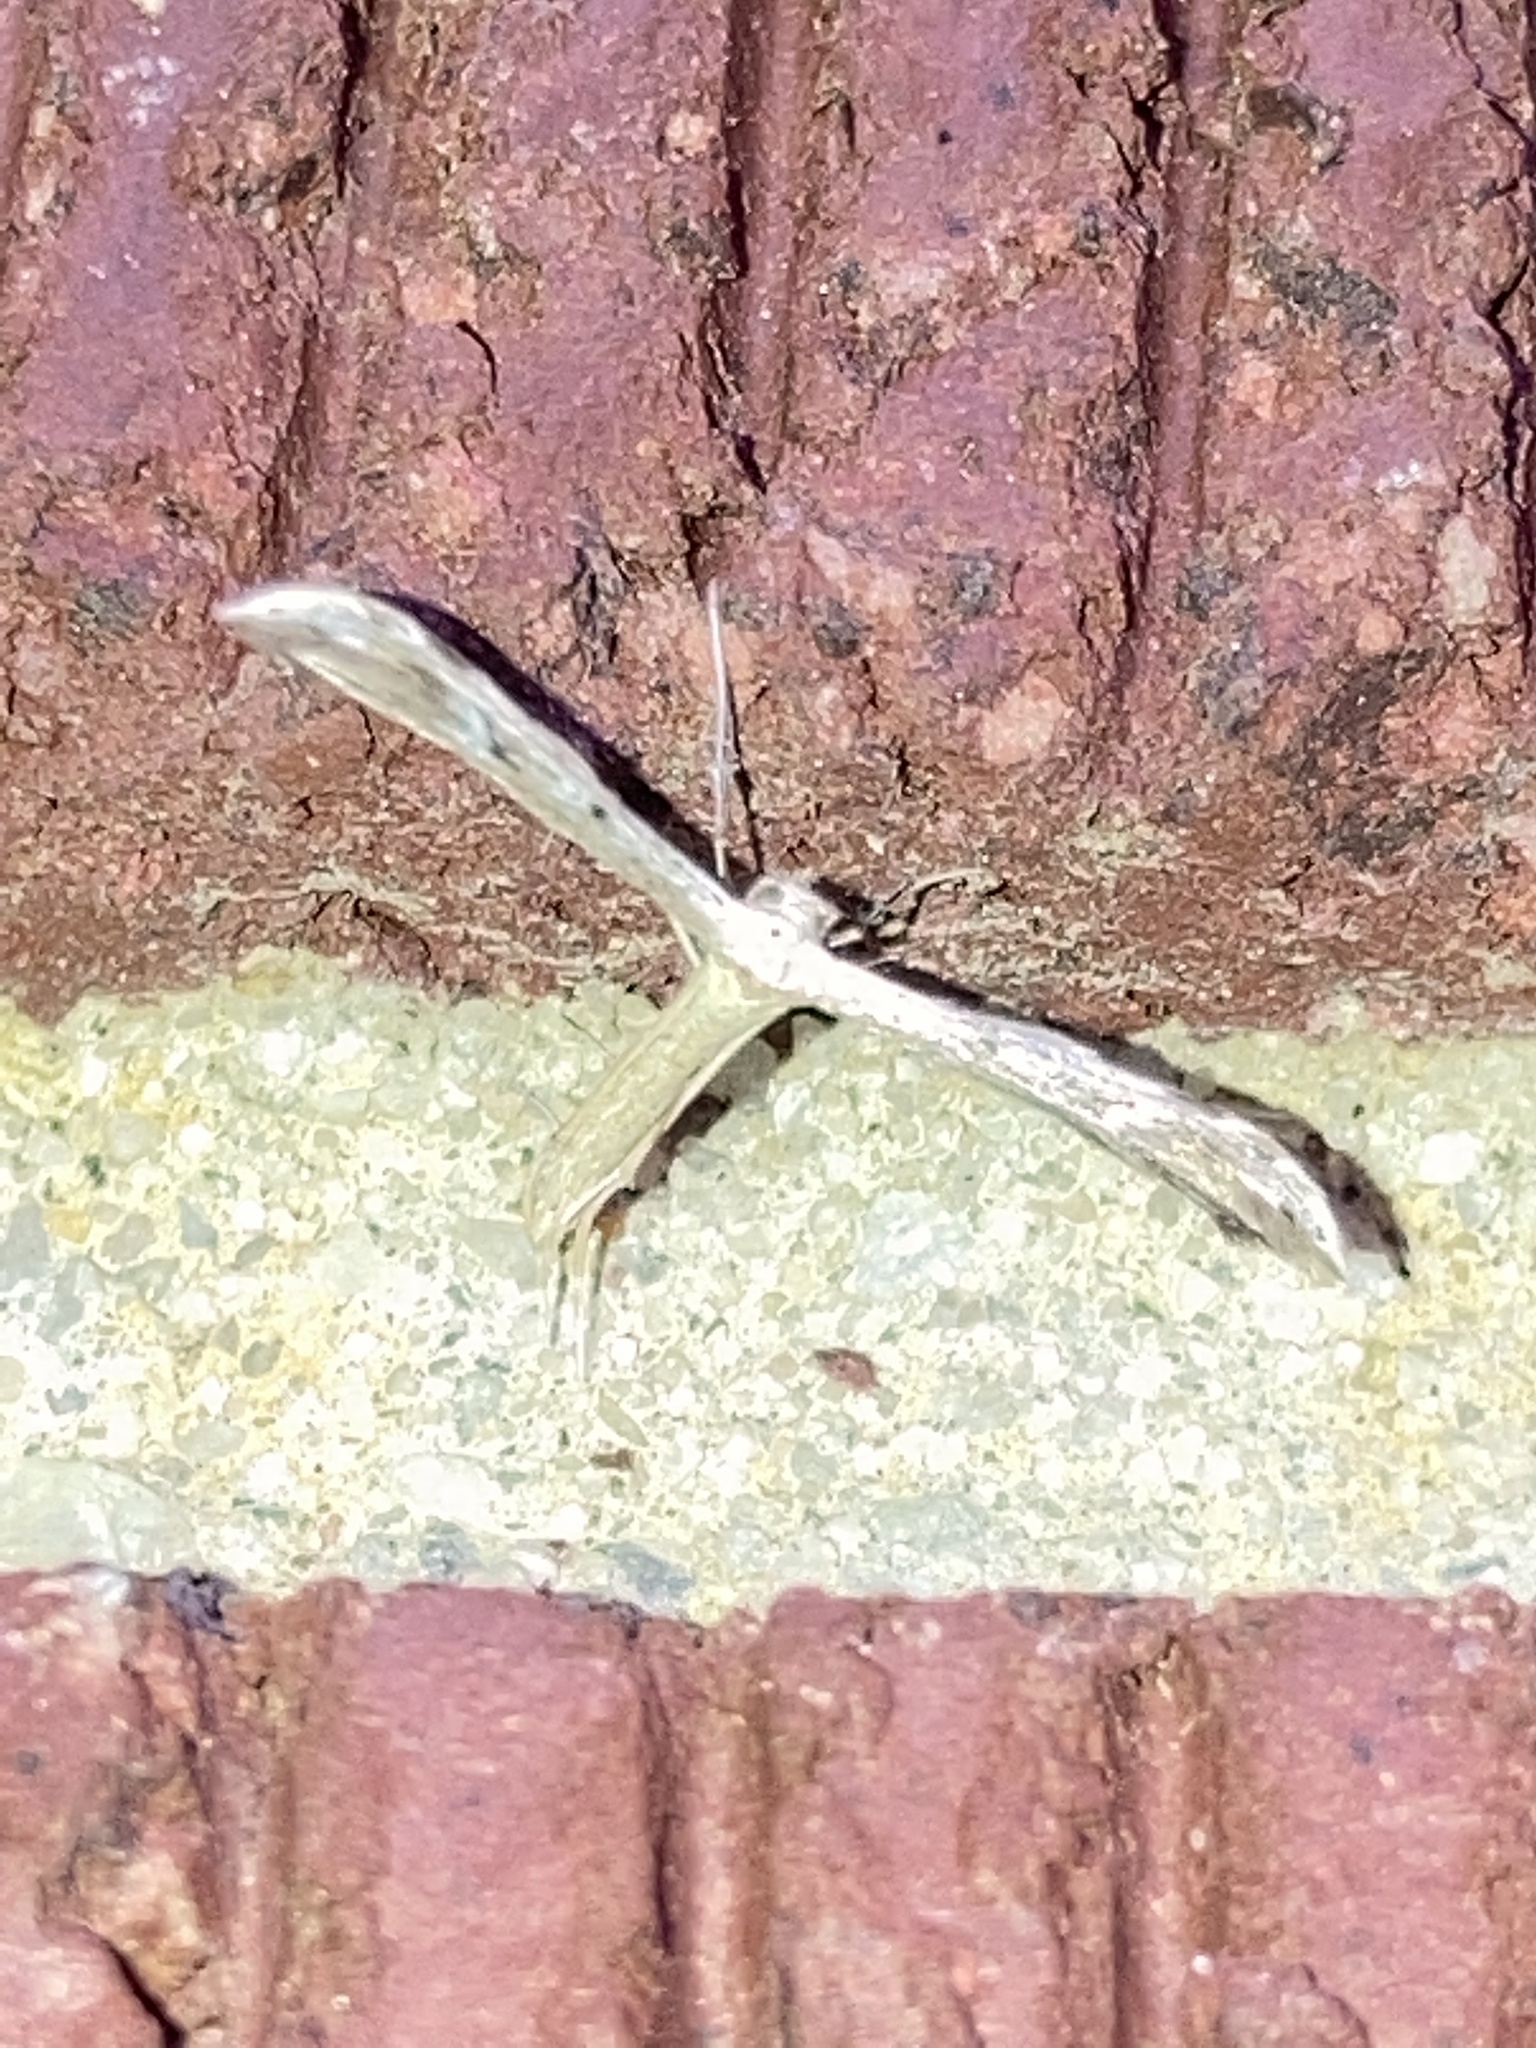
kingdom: Animalia
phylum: Arthropoda
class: Insecta
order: Lepidoptera
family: Pterophoridae
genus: Pselnophorus
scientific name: Pselnophorus belfragei
